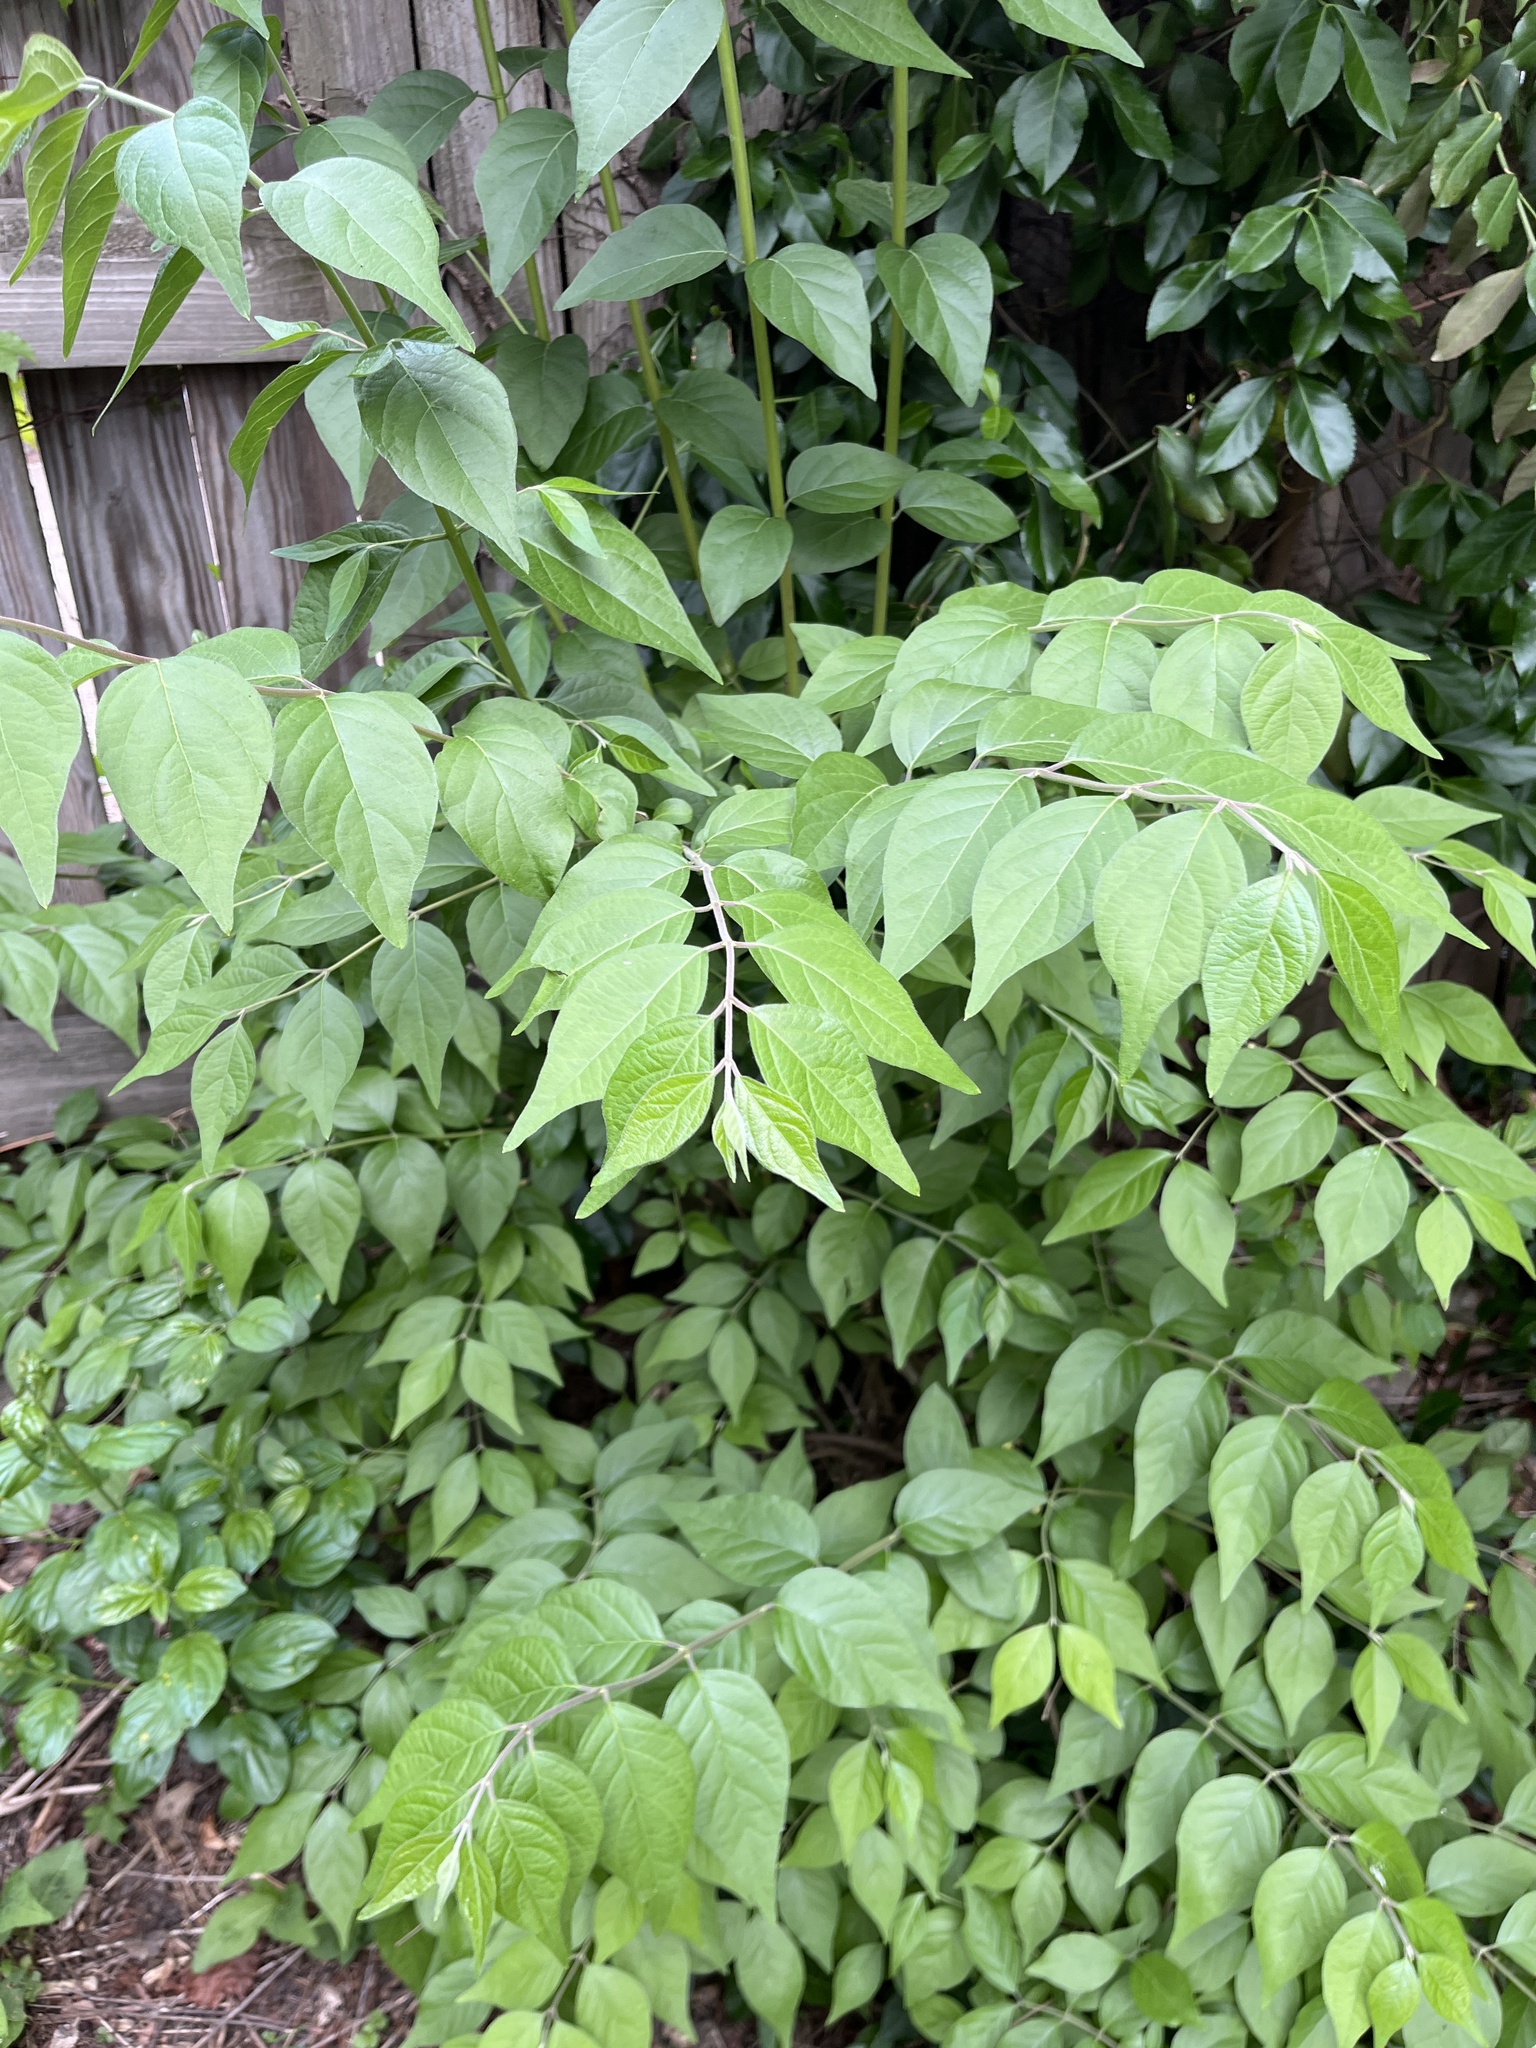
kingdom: Plantae
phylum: Tracheophyta
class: Magnoliopsida
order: Dipsacales
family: Caprifoliaceae
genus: Lonicera
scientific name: Lonicera maackii
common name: Amur honeysuckle
